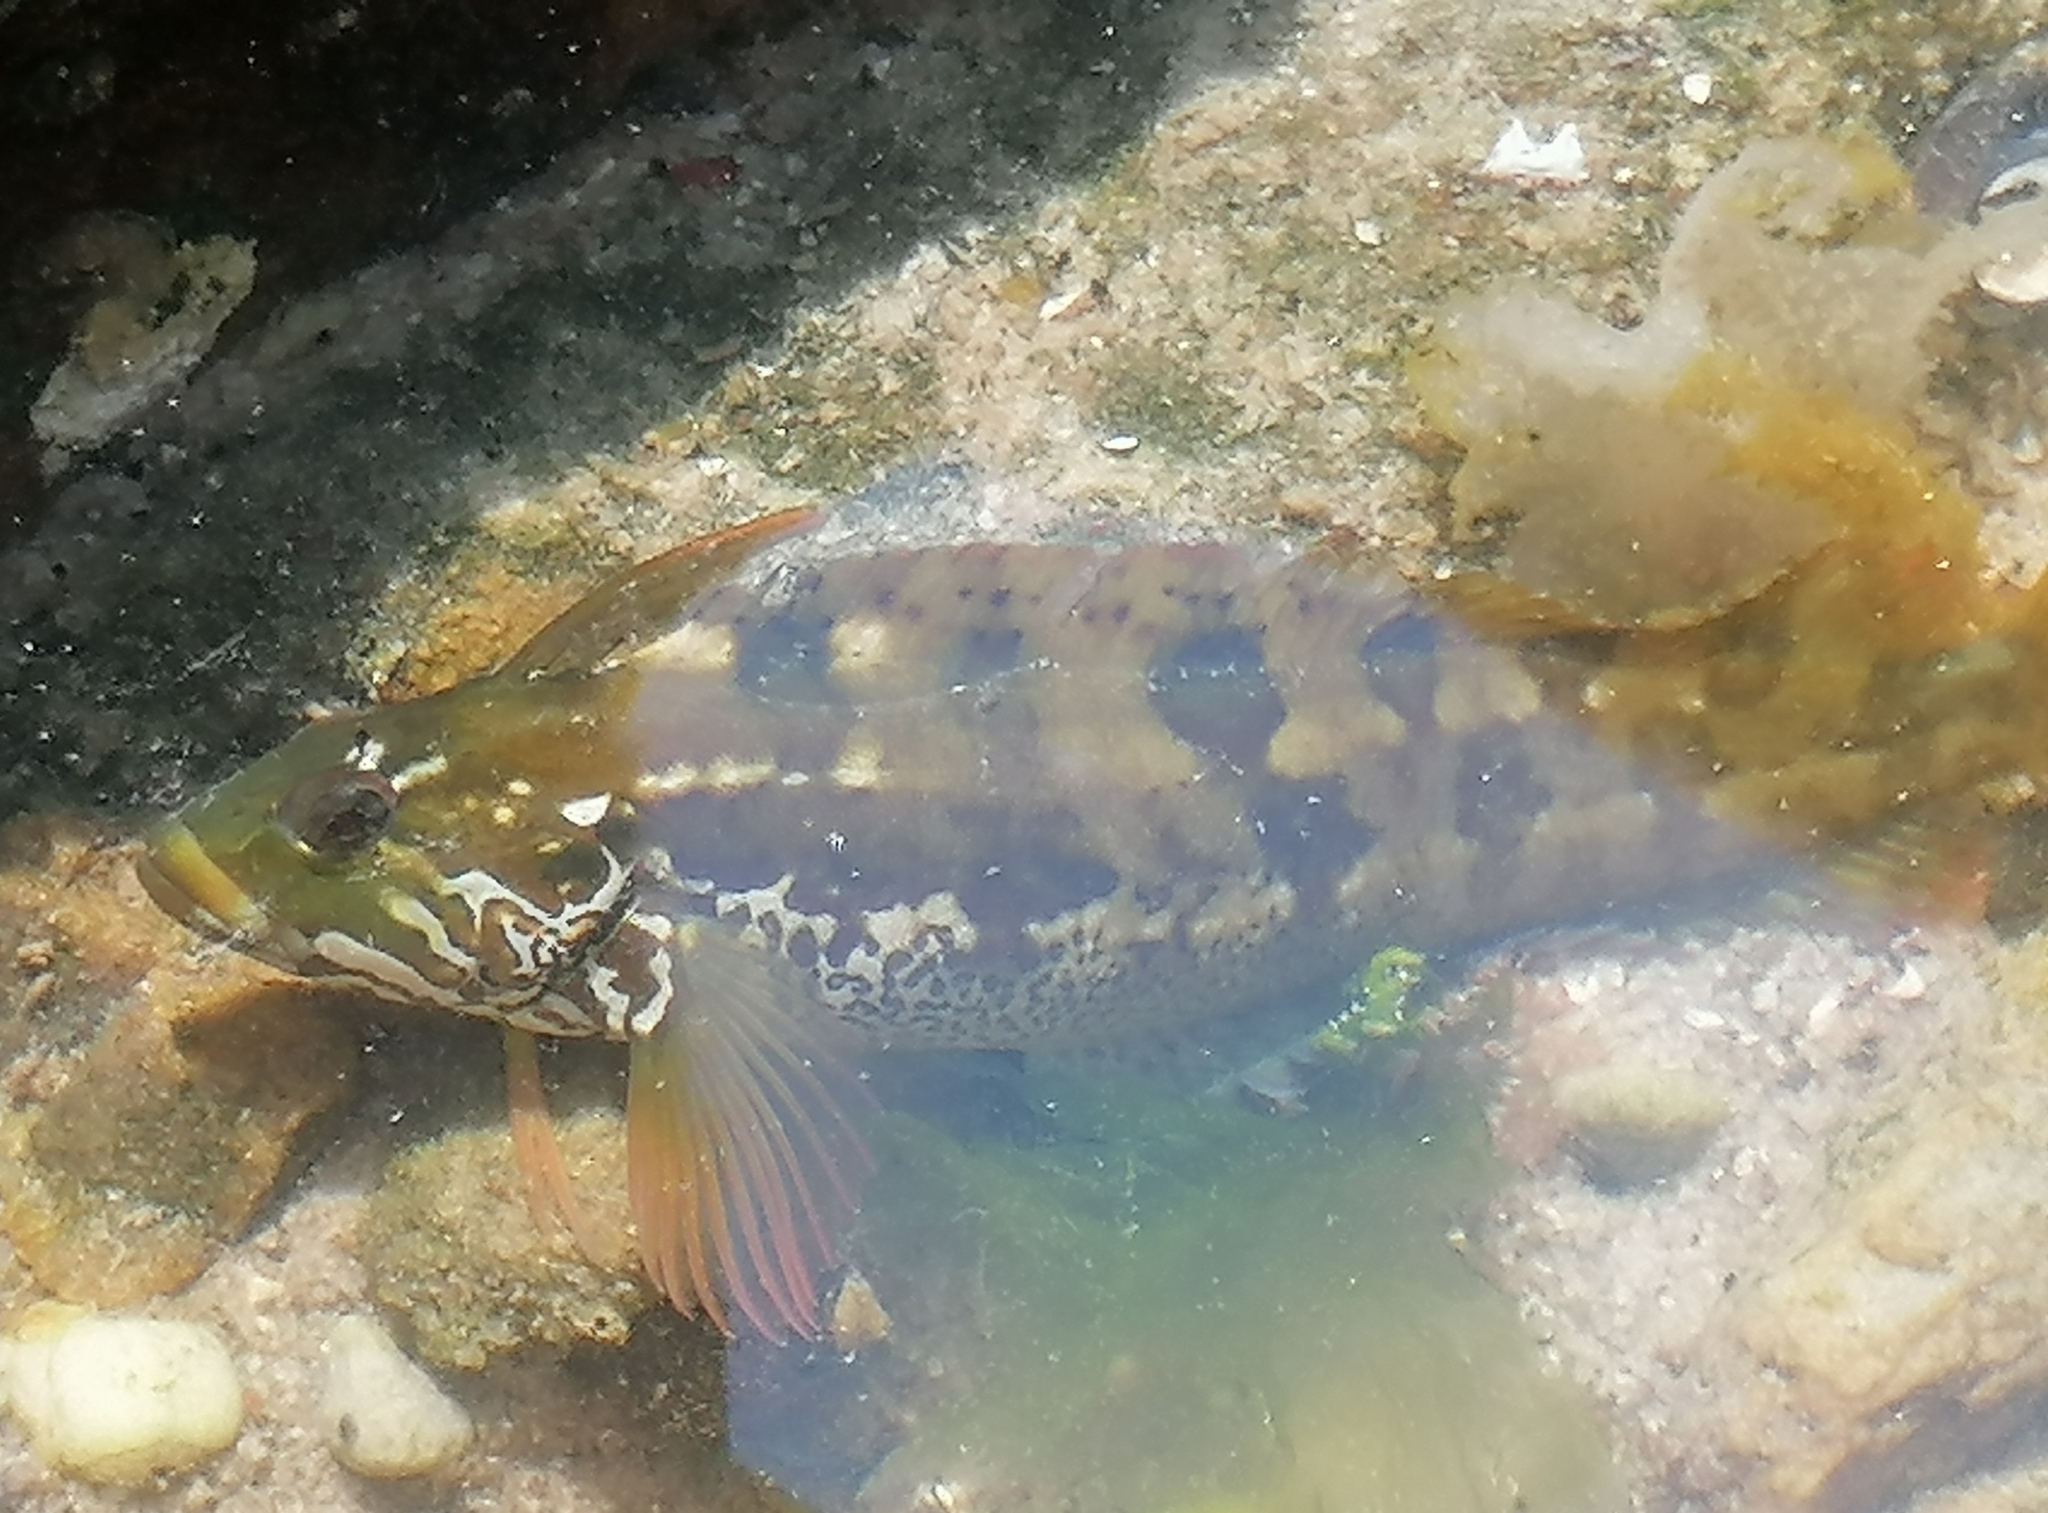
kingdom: Animalia
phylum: Chordata
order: Perciformes
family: Clinidae
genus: Clinus
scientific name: Clinus superciliosus
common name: Super klipfish
